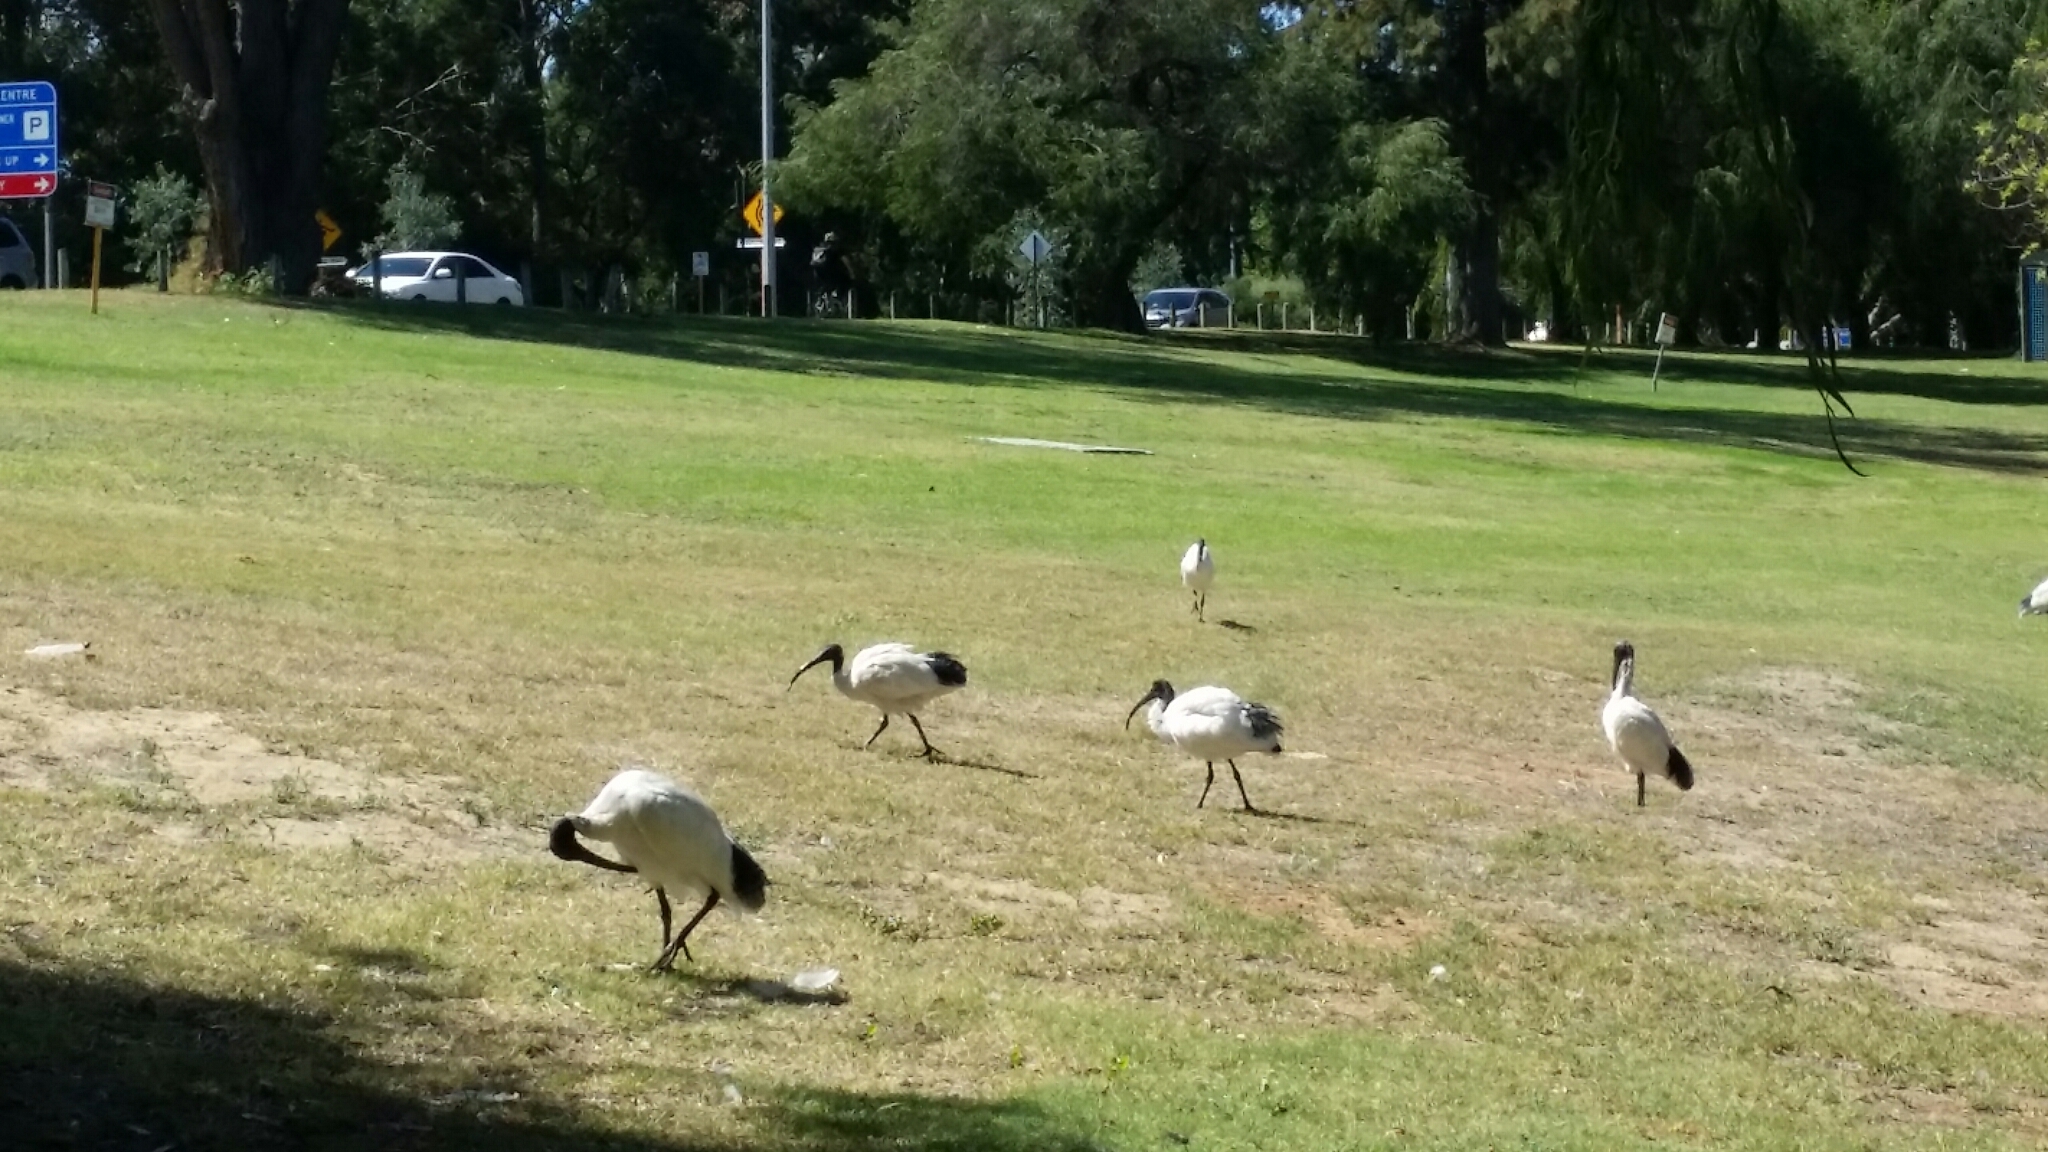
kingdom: Animalia
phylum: Chordata
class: Aves
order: Pelecaniformes
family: Threskiornithidae
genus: Threskiornis
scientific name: Threskiornis molucca
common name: Australian white ibis
